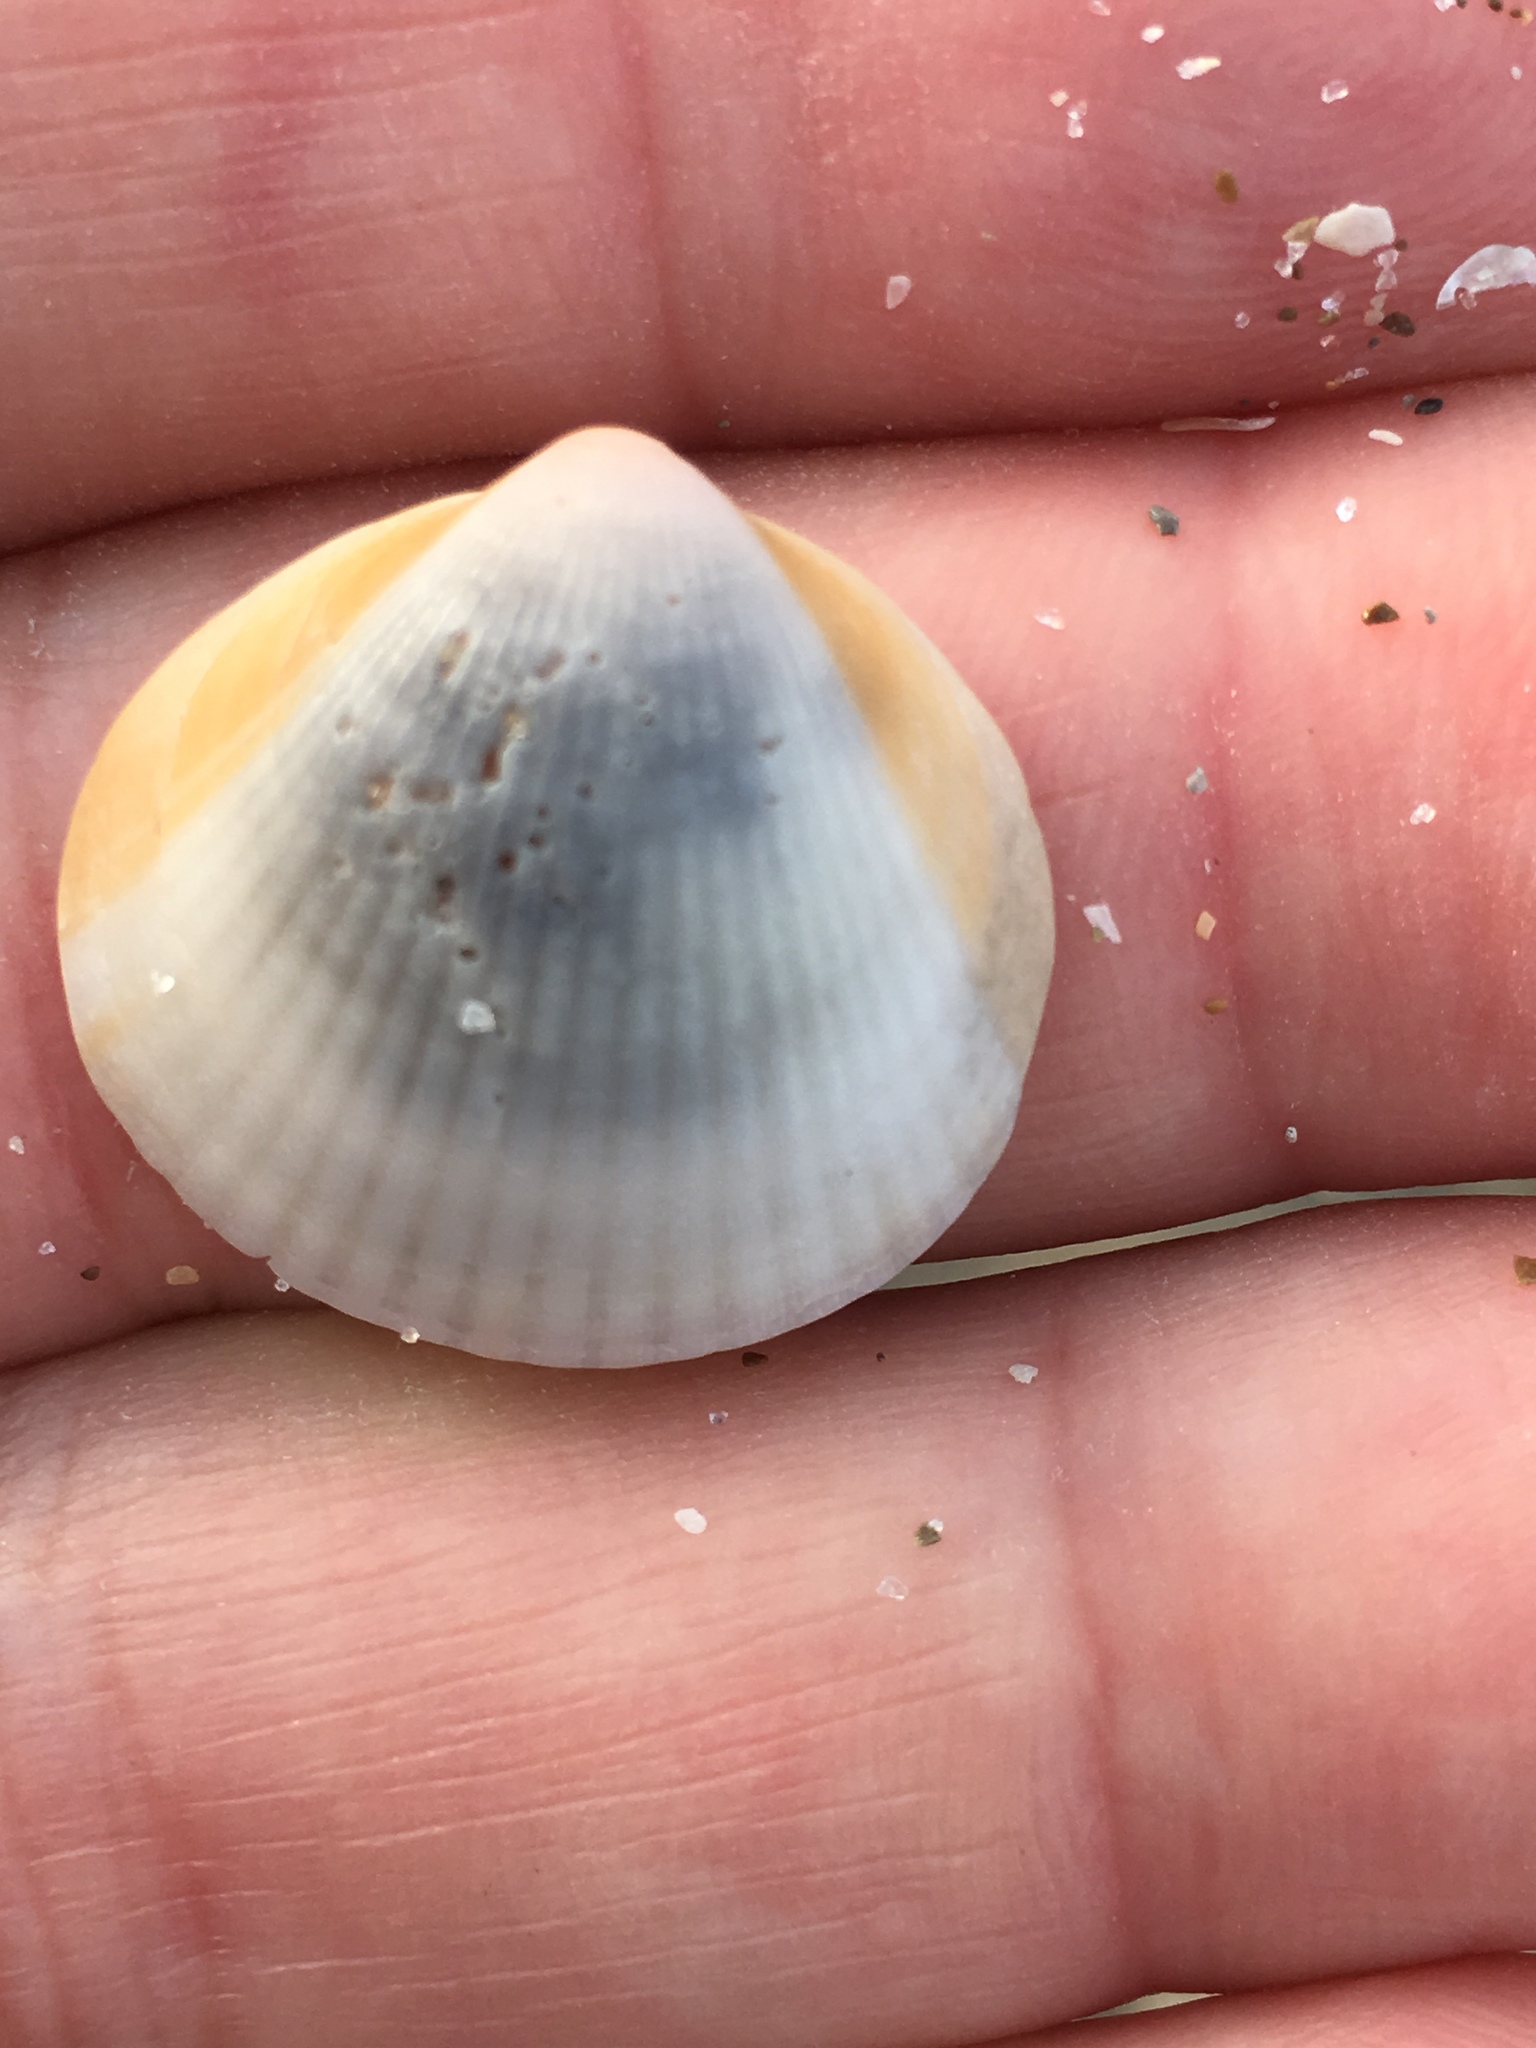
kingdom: Animalia
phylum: Mollusca
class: Bivalvia
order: Arcida
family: Glycymerididae
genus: Glycymeris
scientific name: Glycymeris spectralis
